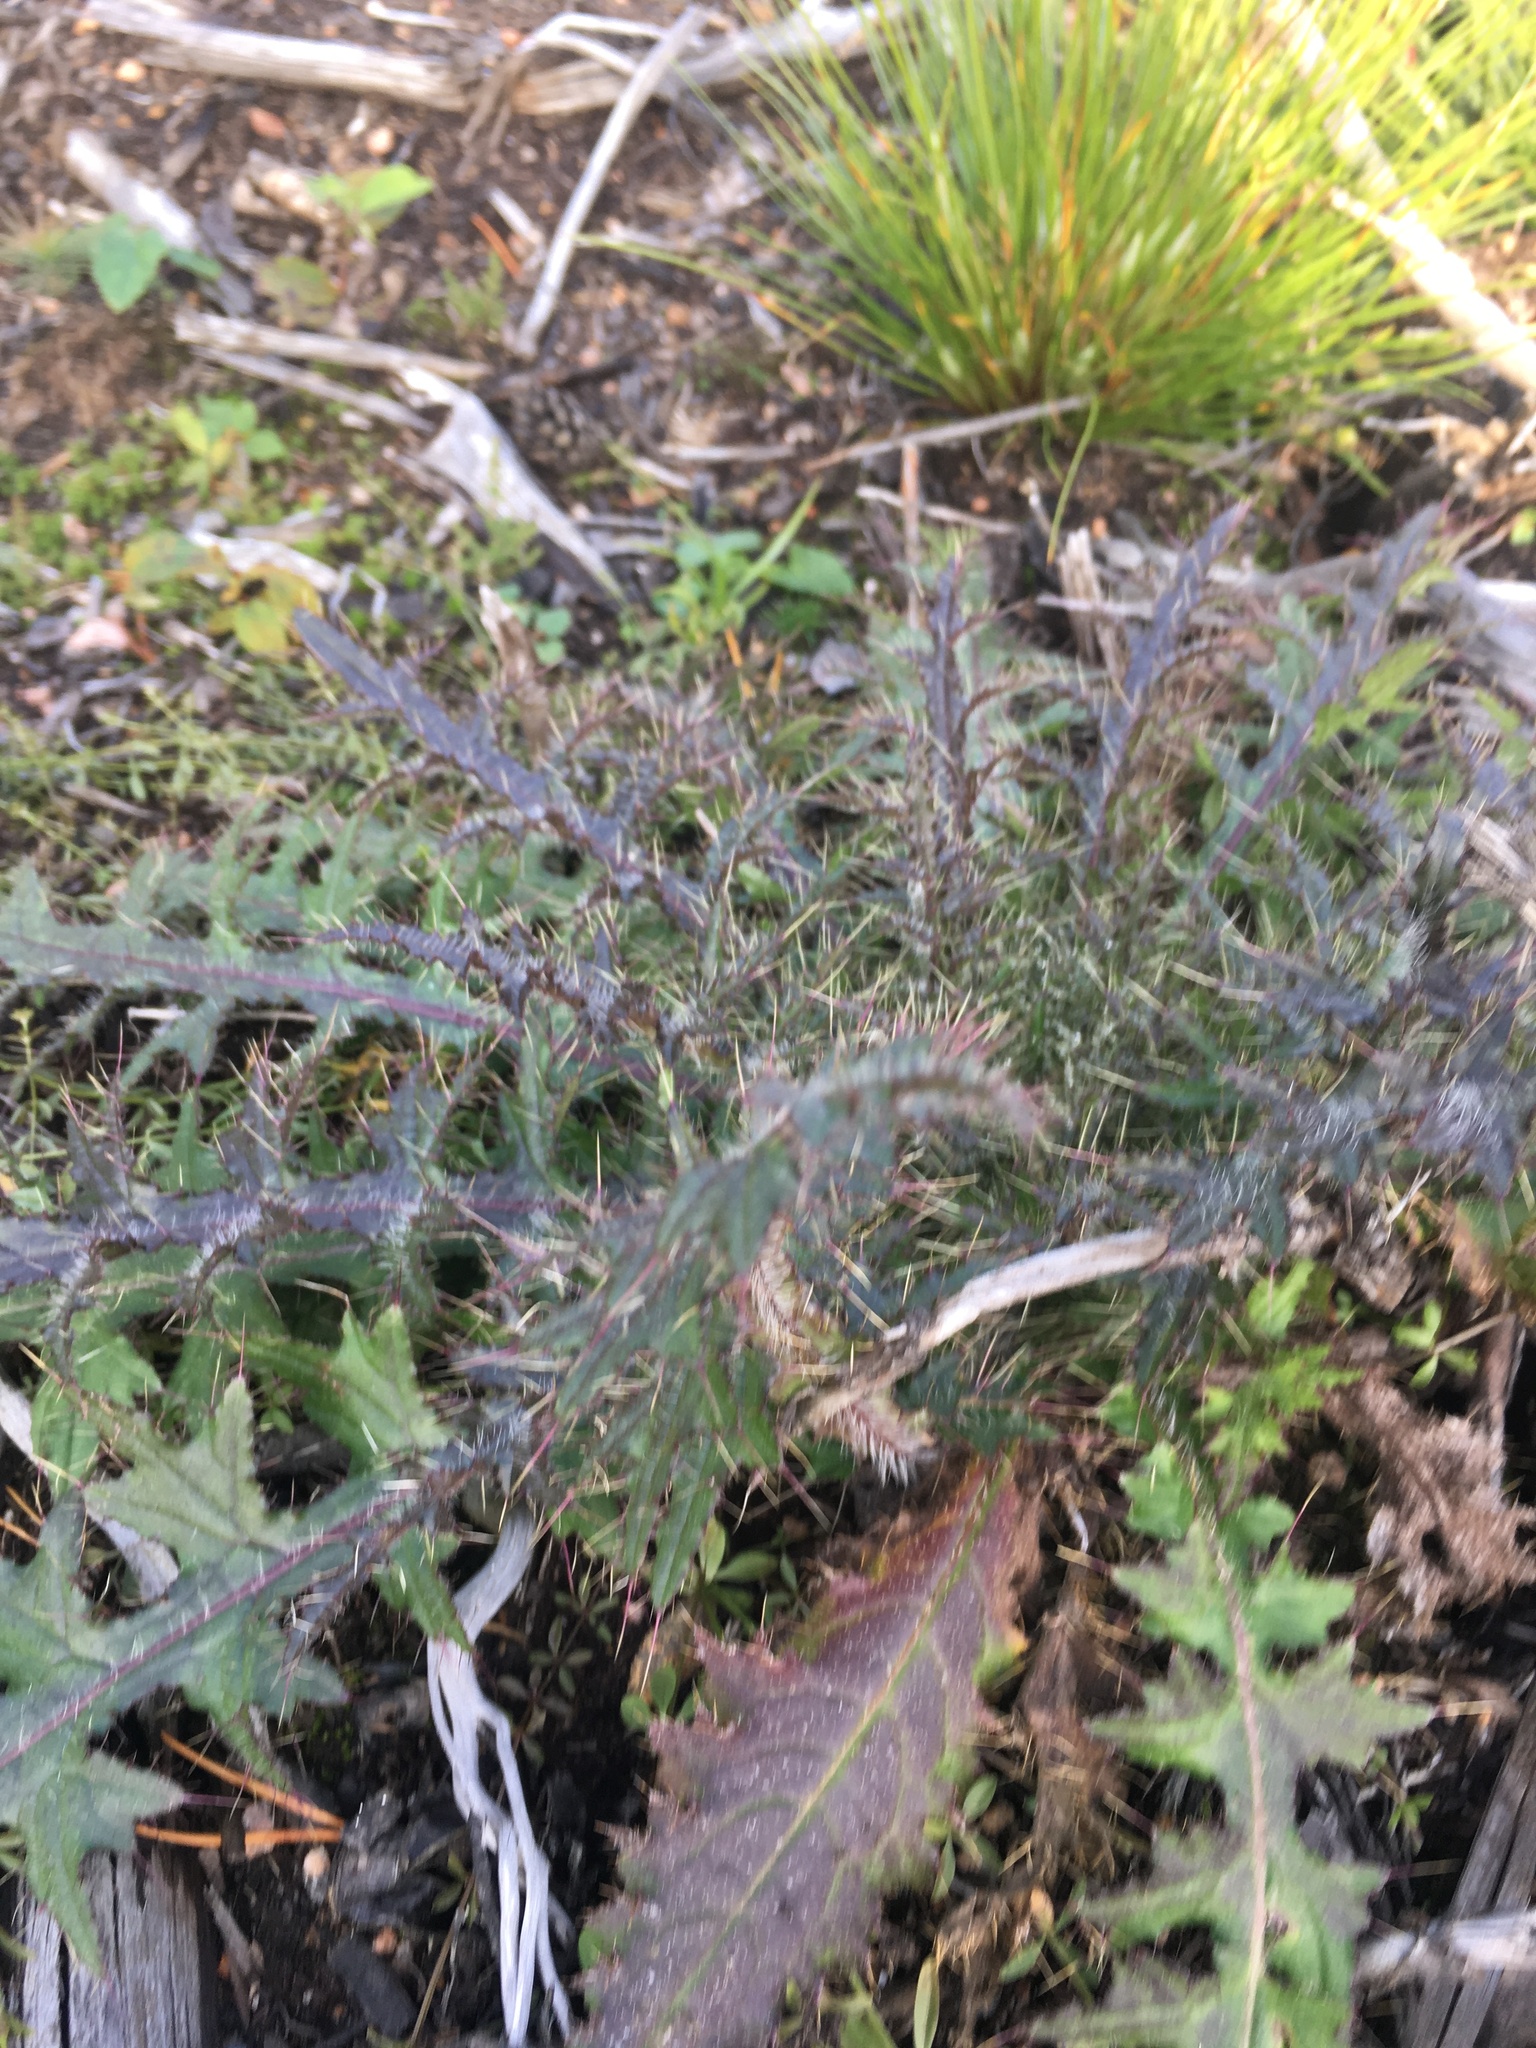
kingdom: Plantae
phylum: Tracheophyta
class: Magnoliopsida
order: Asterales
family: Asteraceae
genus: Cirsium
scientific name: Cirsium palustre
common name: Marsh thistle
